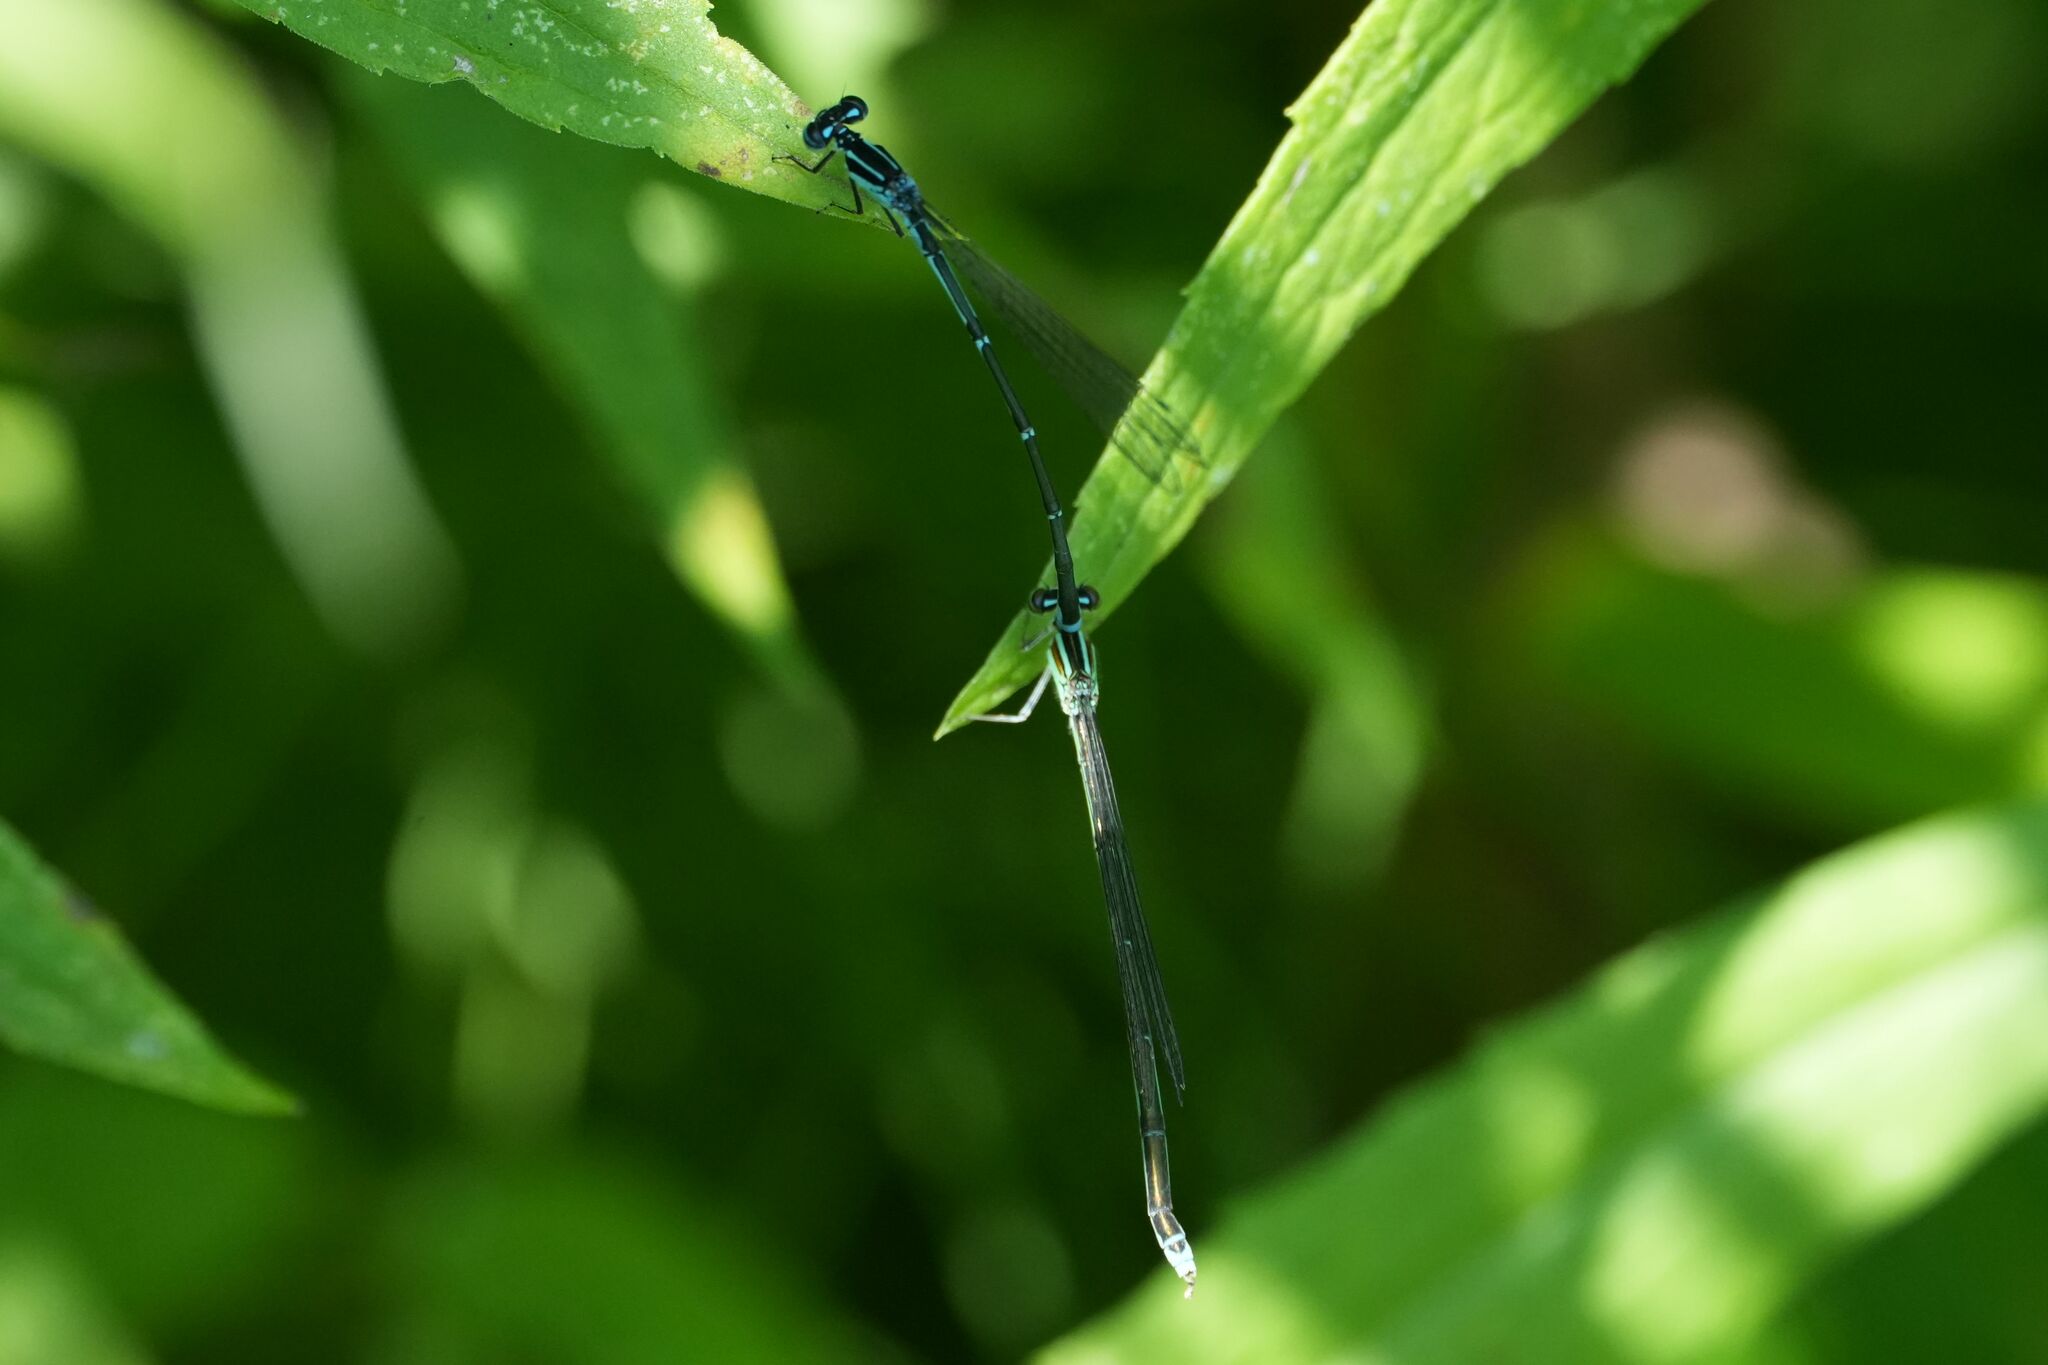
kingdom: Animalia
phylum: Arthropoda
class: Insecta
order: Odonata
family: Coenagrionidae
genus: Enallagma
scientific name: Enallagma exsulans
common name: Stream bluet
